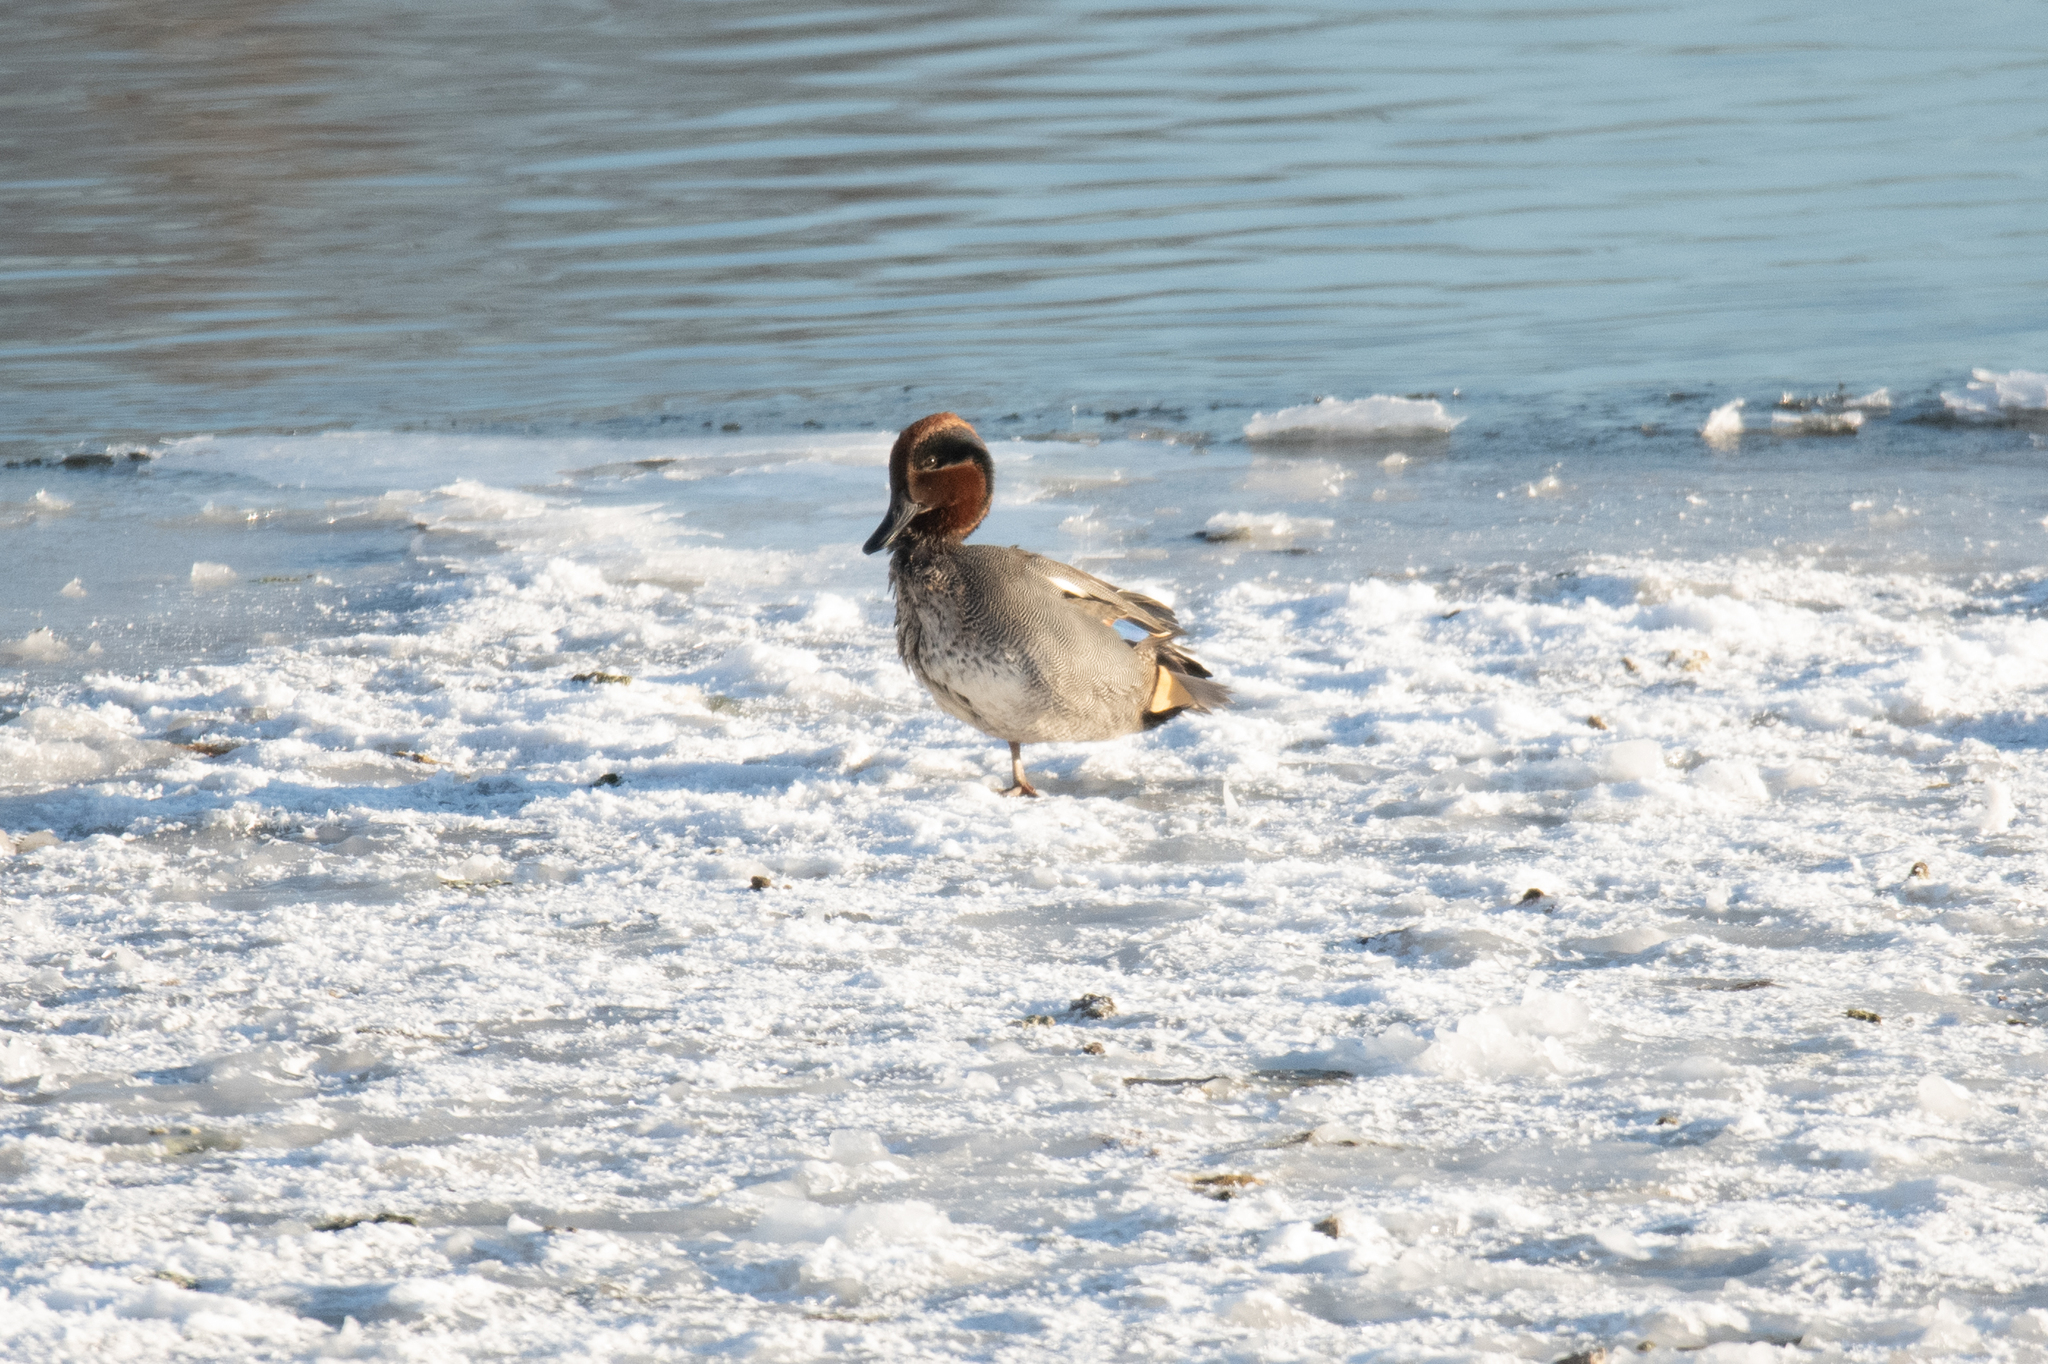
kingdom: Animalia
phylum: Chordata
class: Aves
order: Anseriformes
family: Anatidae
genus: Anas
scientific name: Anas crecca
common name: Eurasian teal
